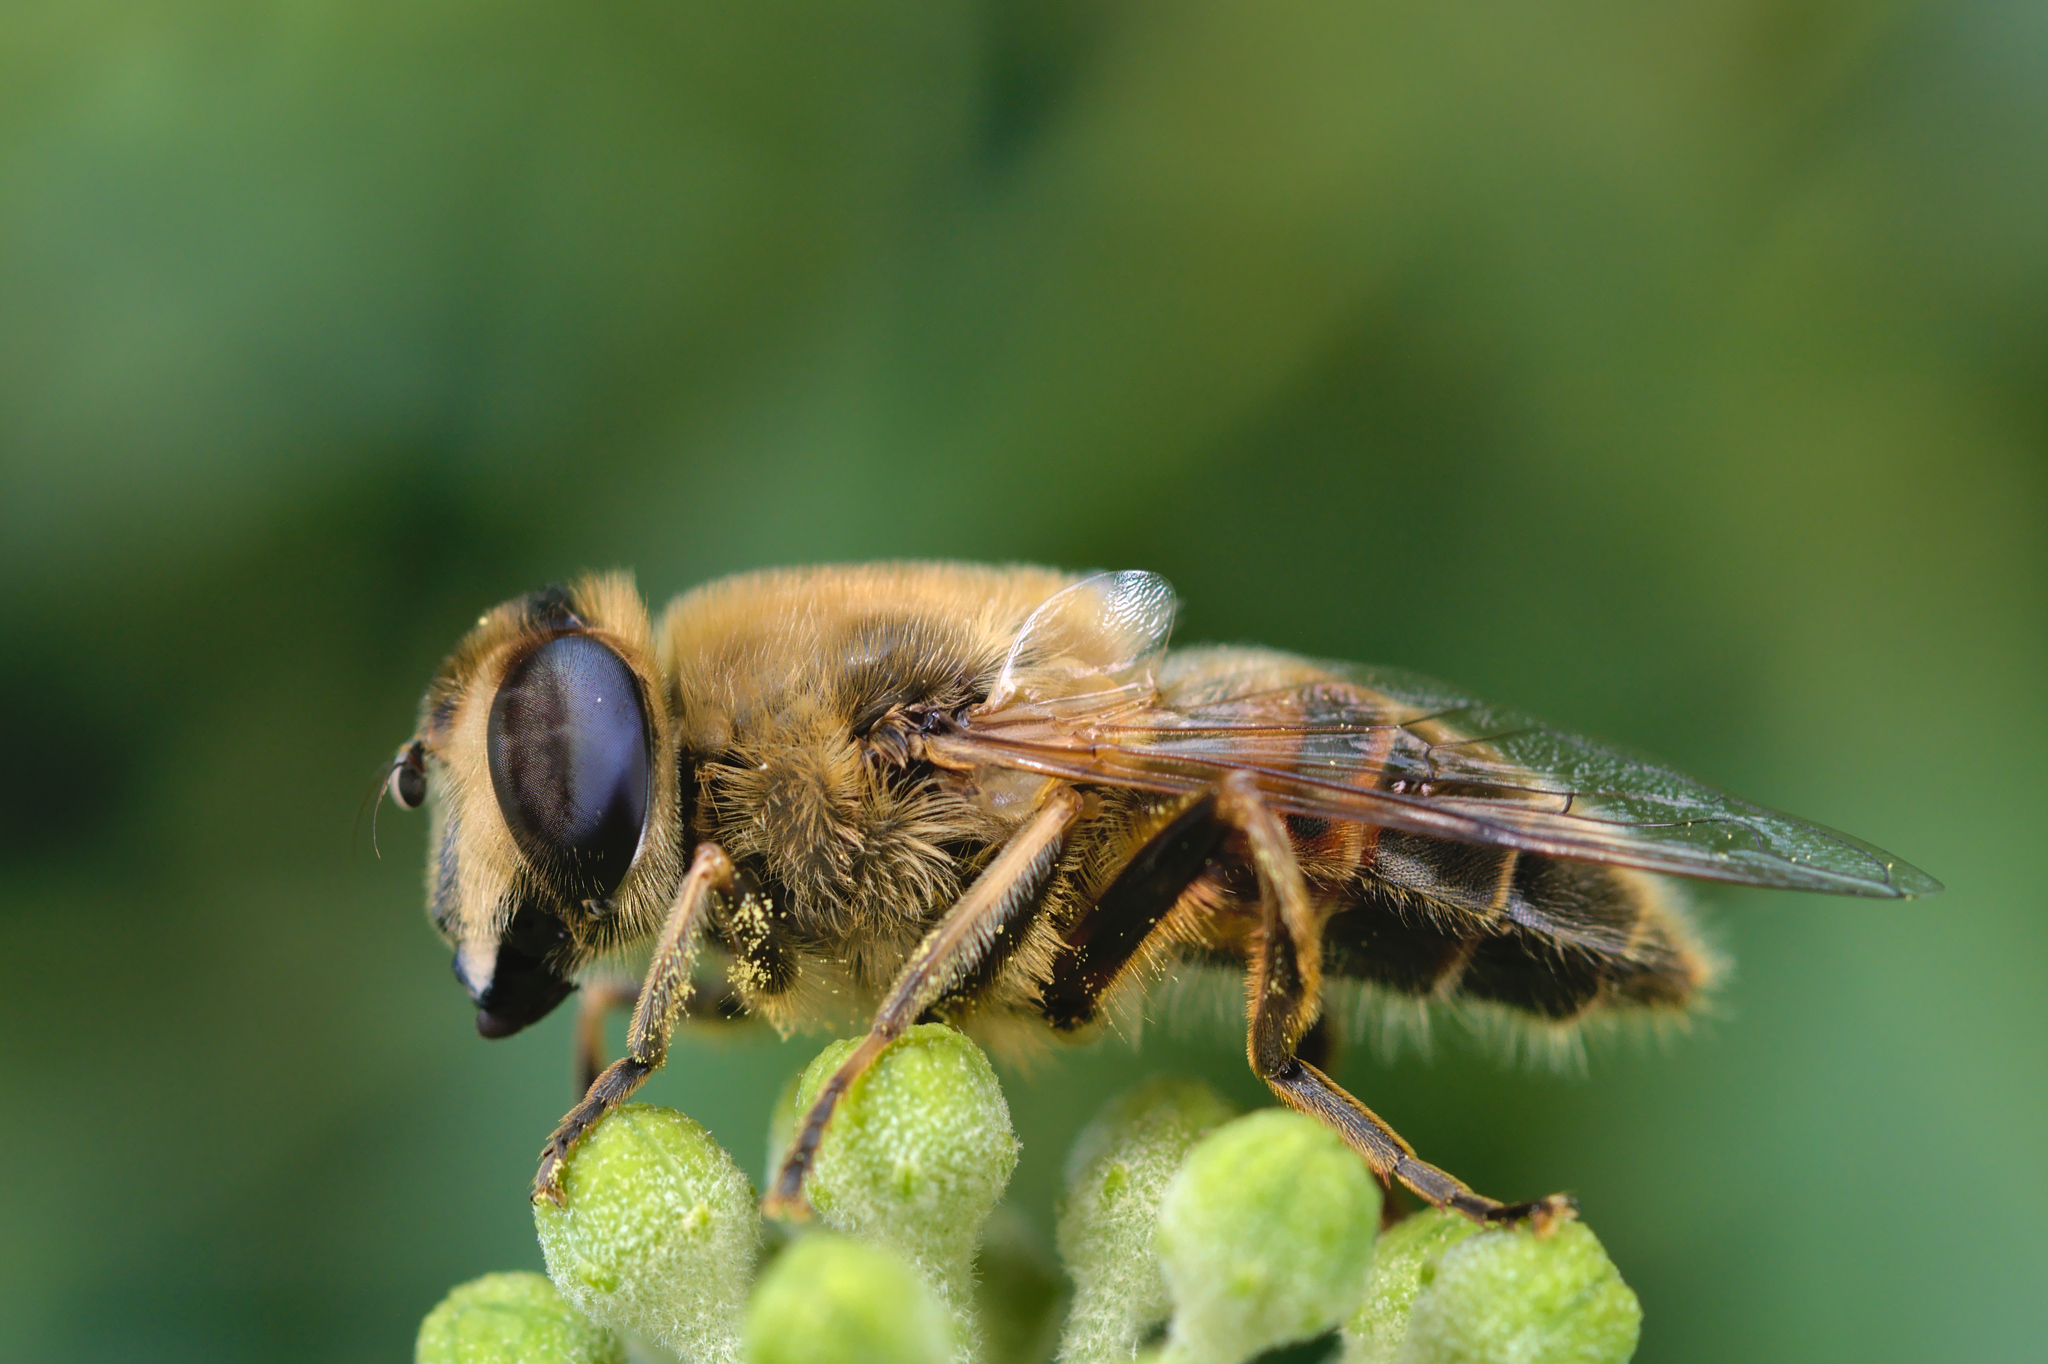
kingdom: Animalia
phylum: Arthropoda
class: Insecta
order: Diptera
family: Syrphidae
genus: Eristalis
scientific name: Eristalis tenax
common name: Drone fly
